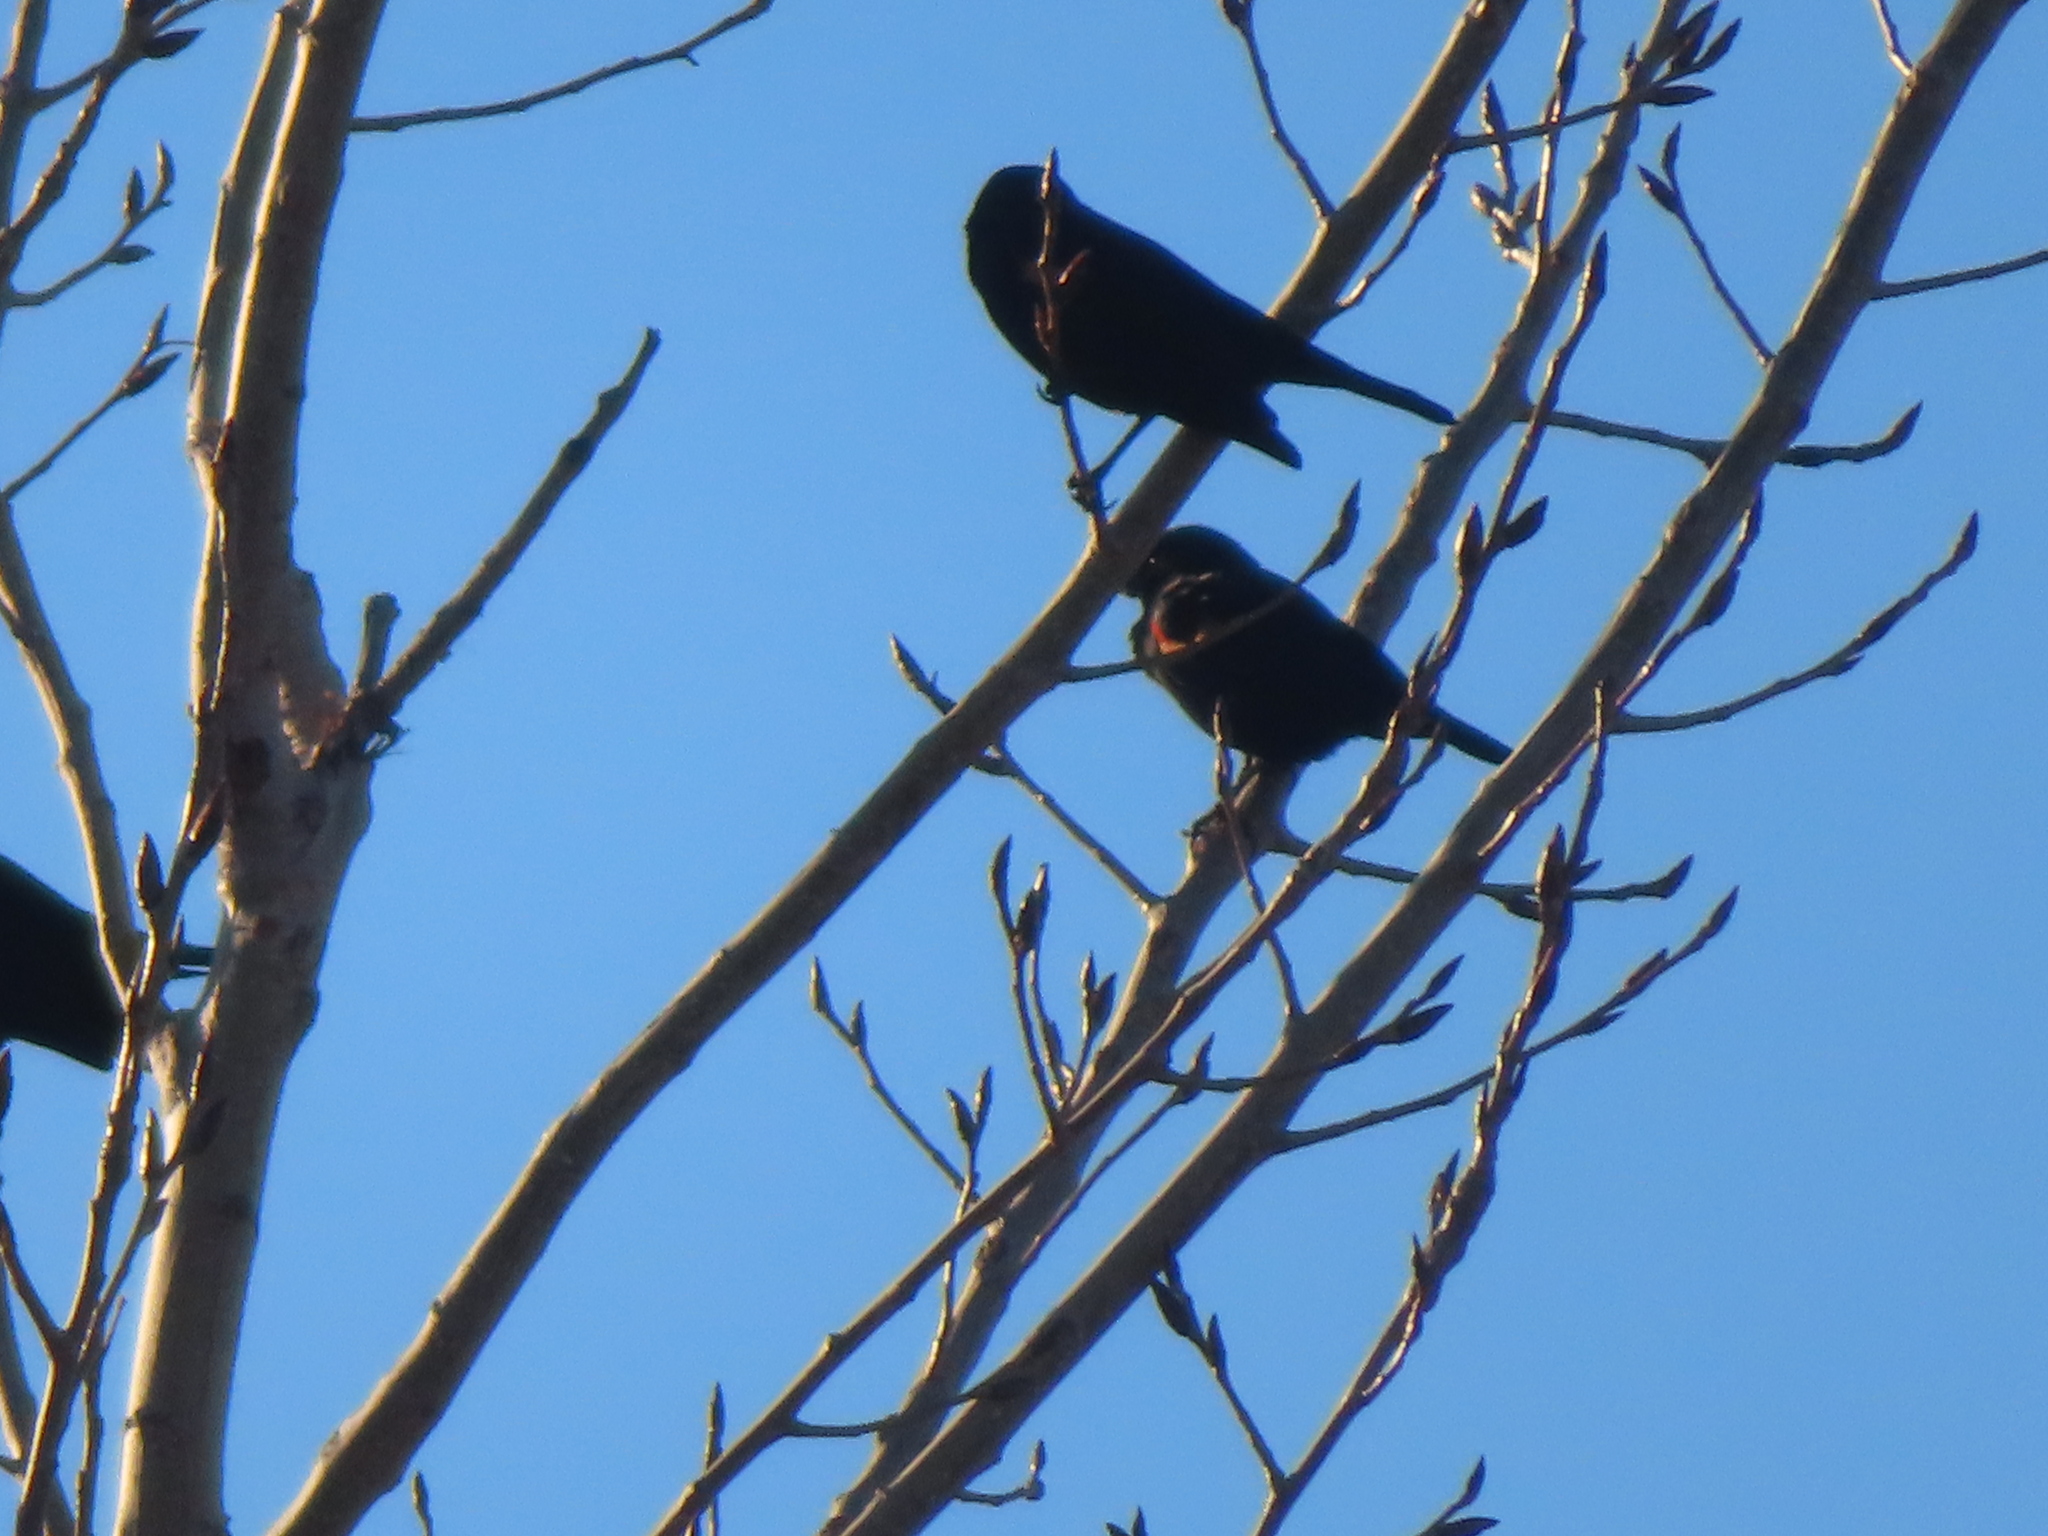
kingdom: Animalia
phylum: Chordata
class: Aves
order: Passeriformes
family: Icteridae
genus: Agelaius
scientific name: Agelaius phoeniceus
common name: Red-winged blackbird
